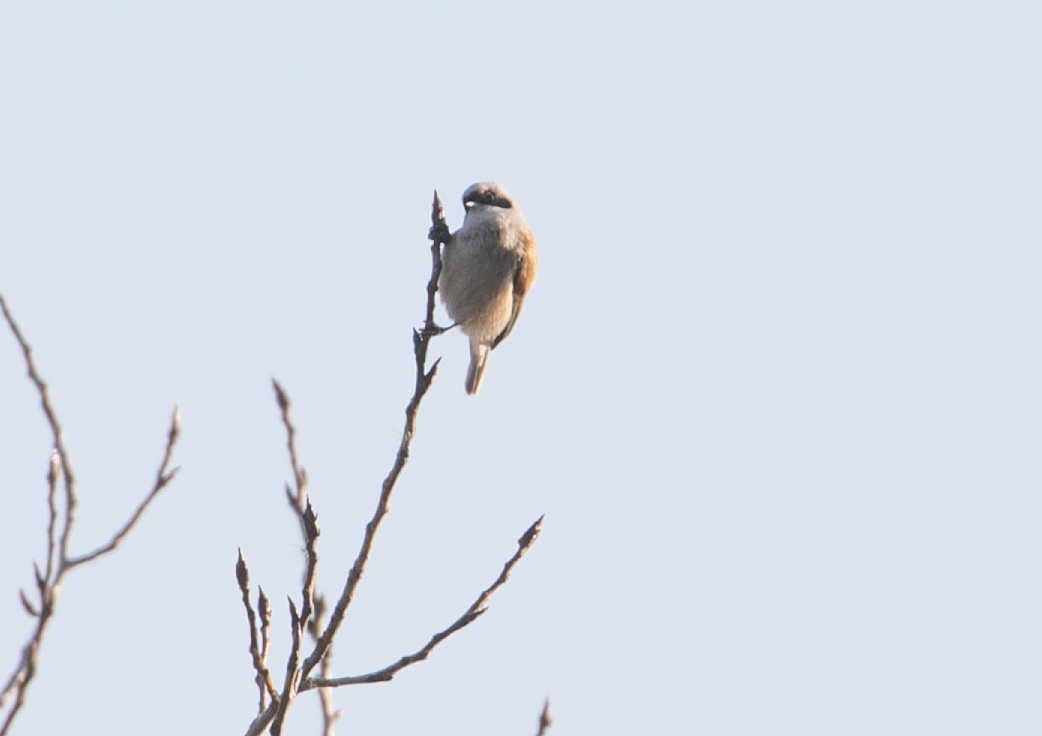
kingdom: Animalia
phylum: Chordata
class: Aves
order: Passeriformes
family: Remizidae
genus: Remiz
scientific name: Remiz pendulinus
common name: Eurasian penduline tit
